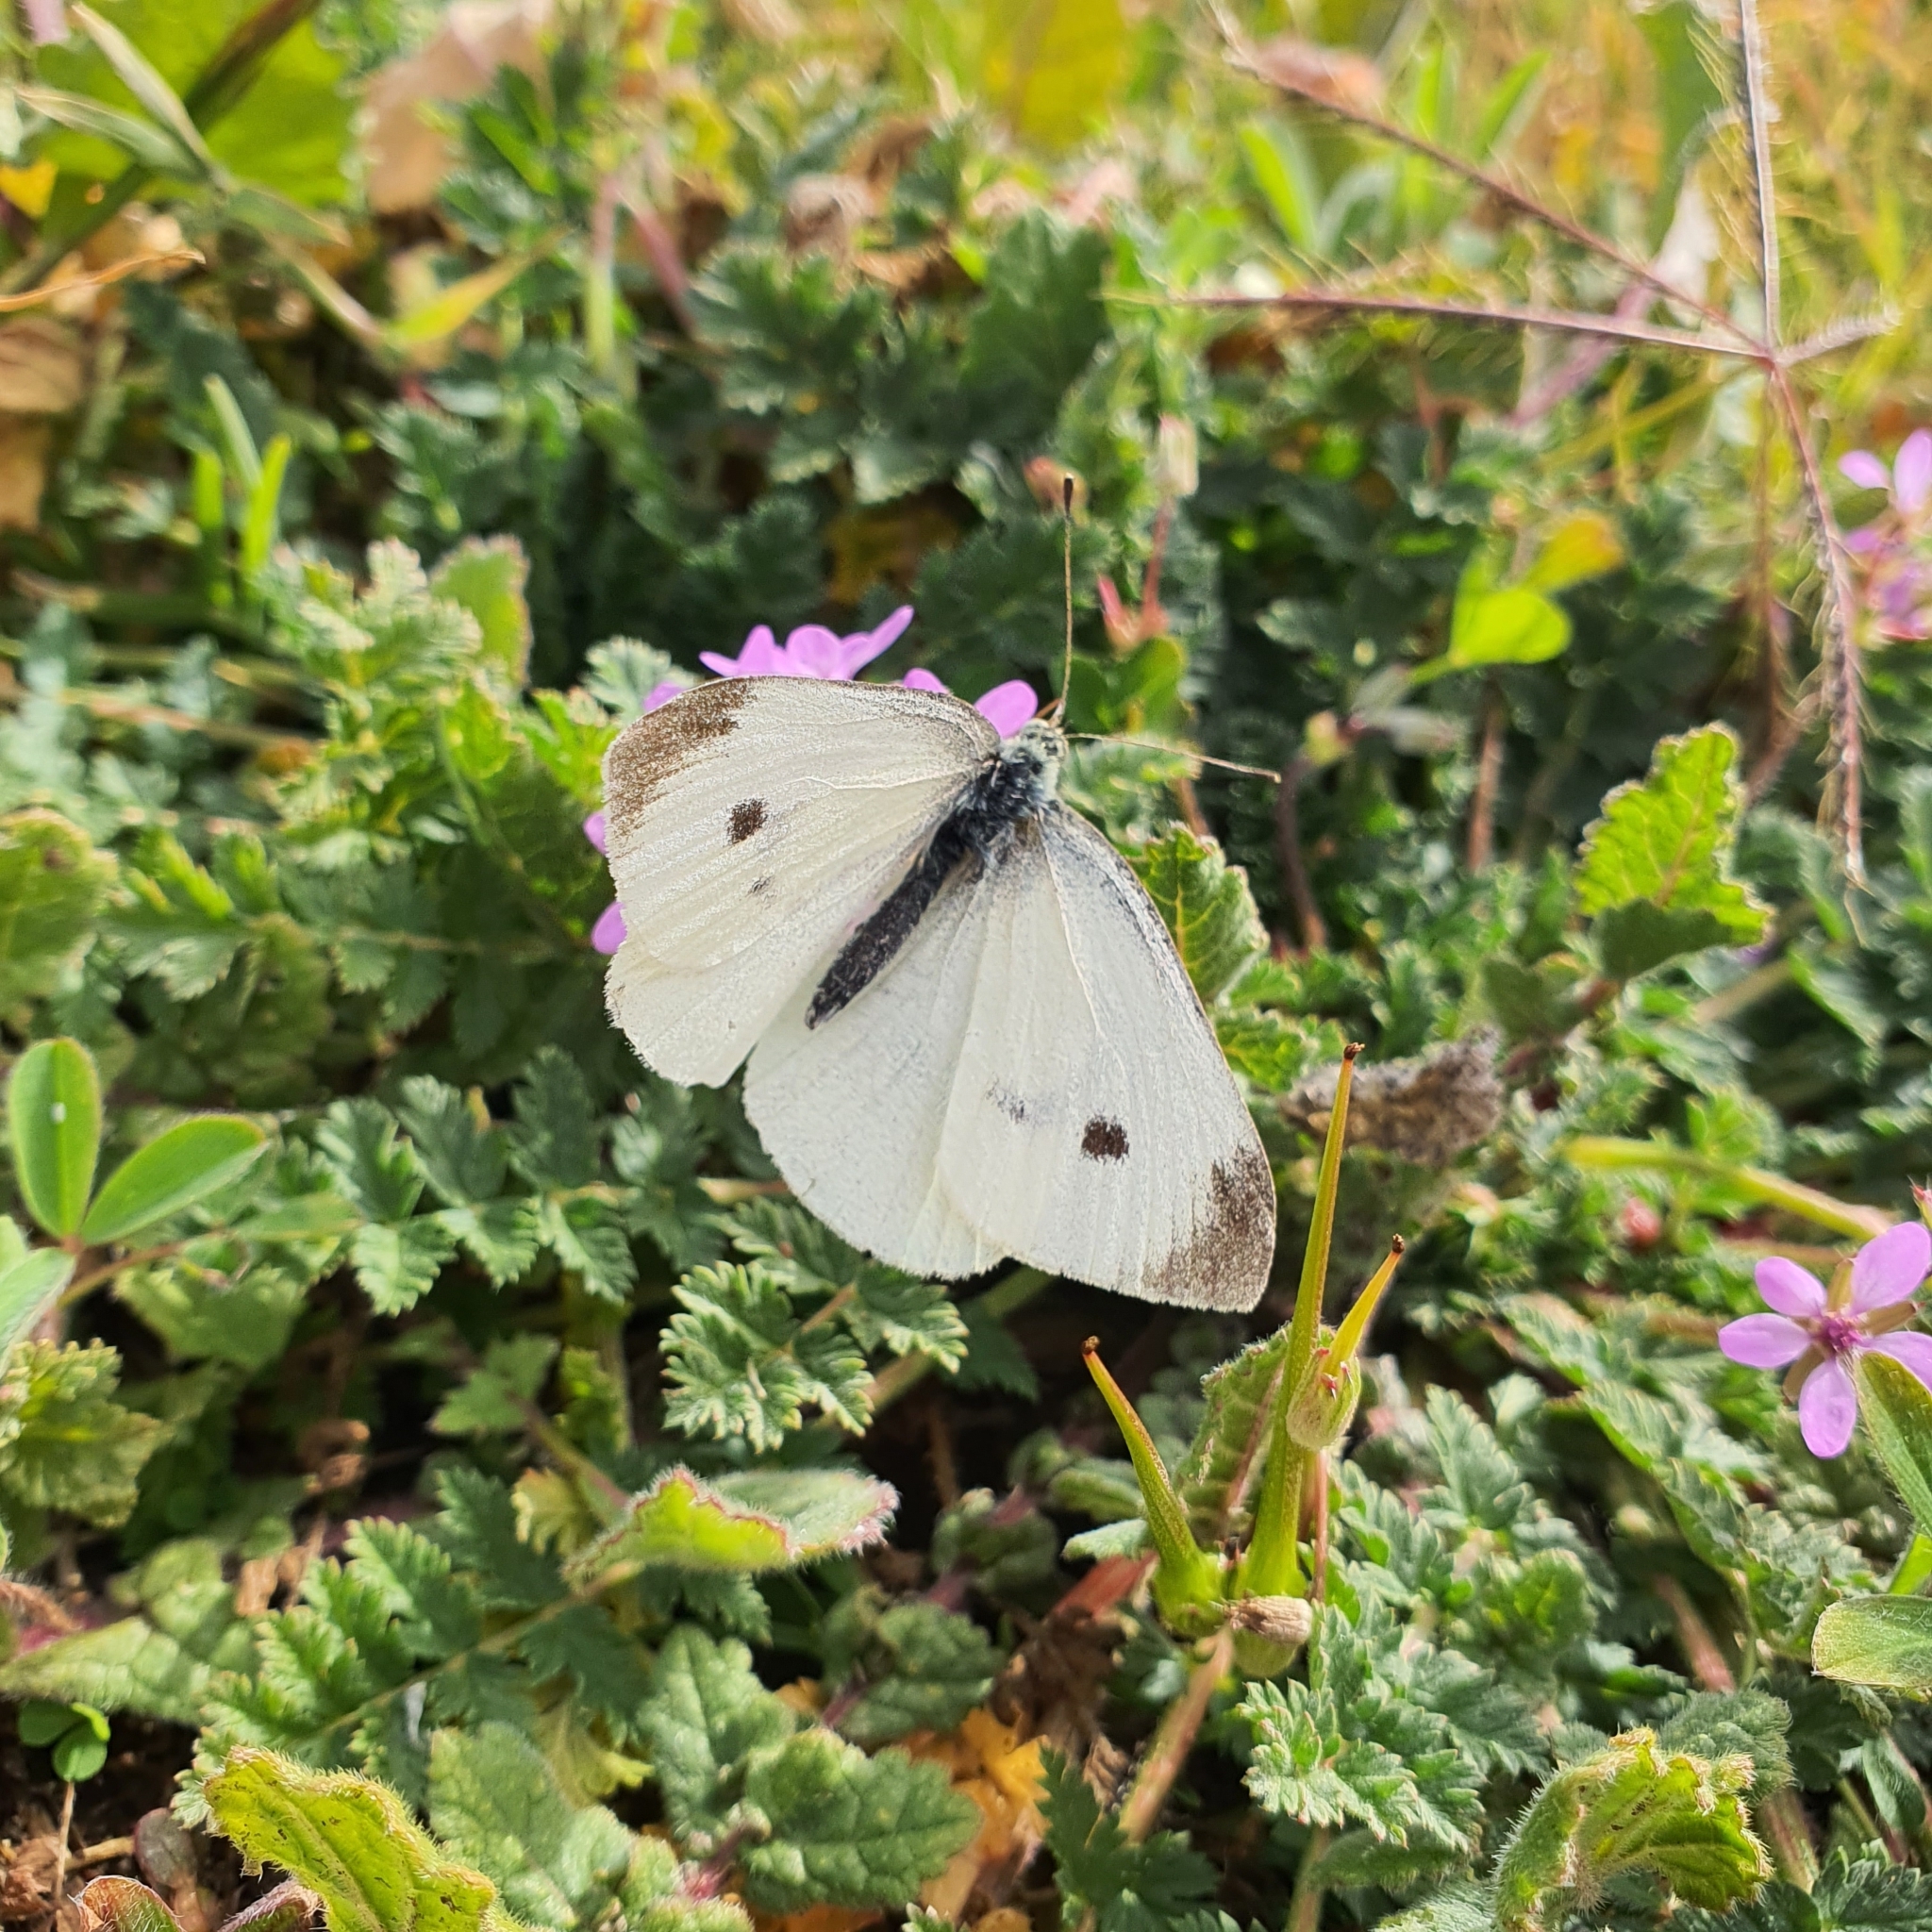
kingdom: Animalia
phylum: Arthropoda
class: Insecta
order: Lepidoptera
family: Pieridae
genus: Pieris
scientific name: Pieris rapae
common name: Small white
